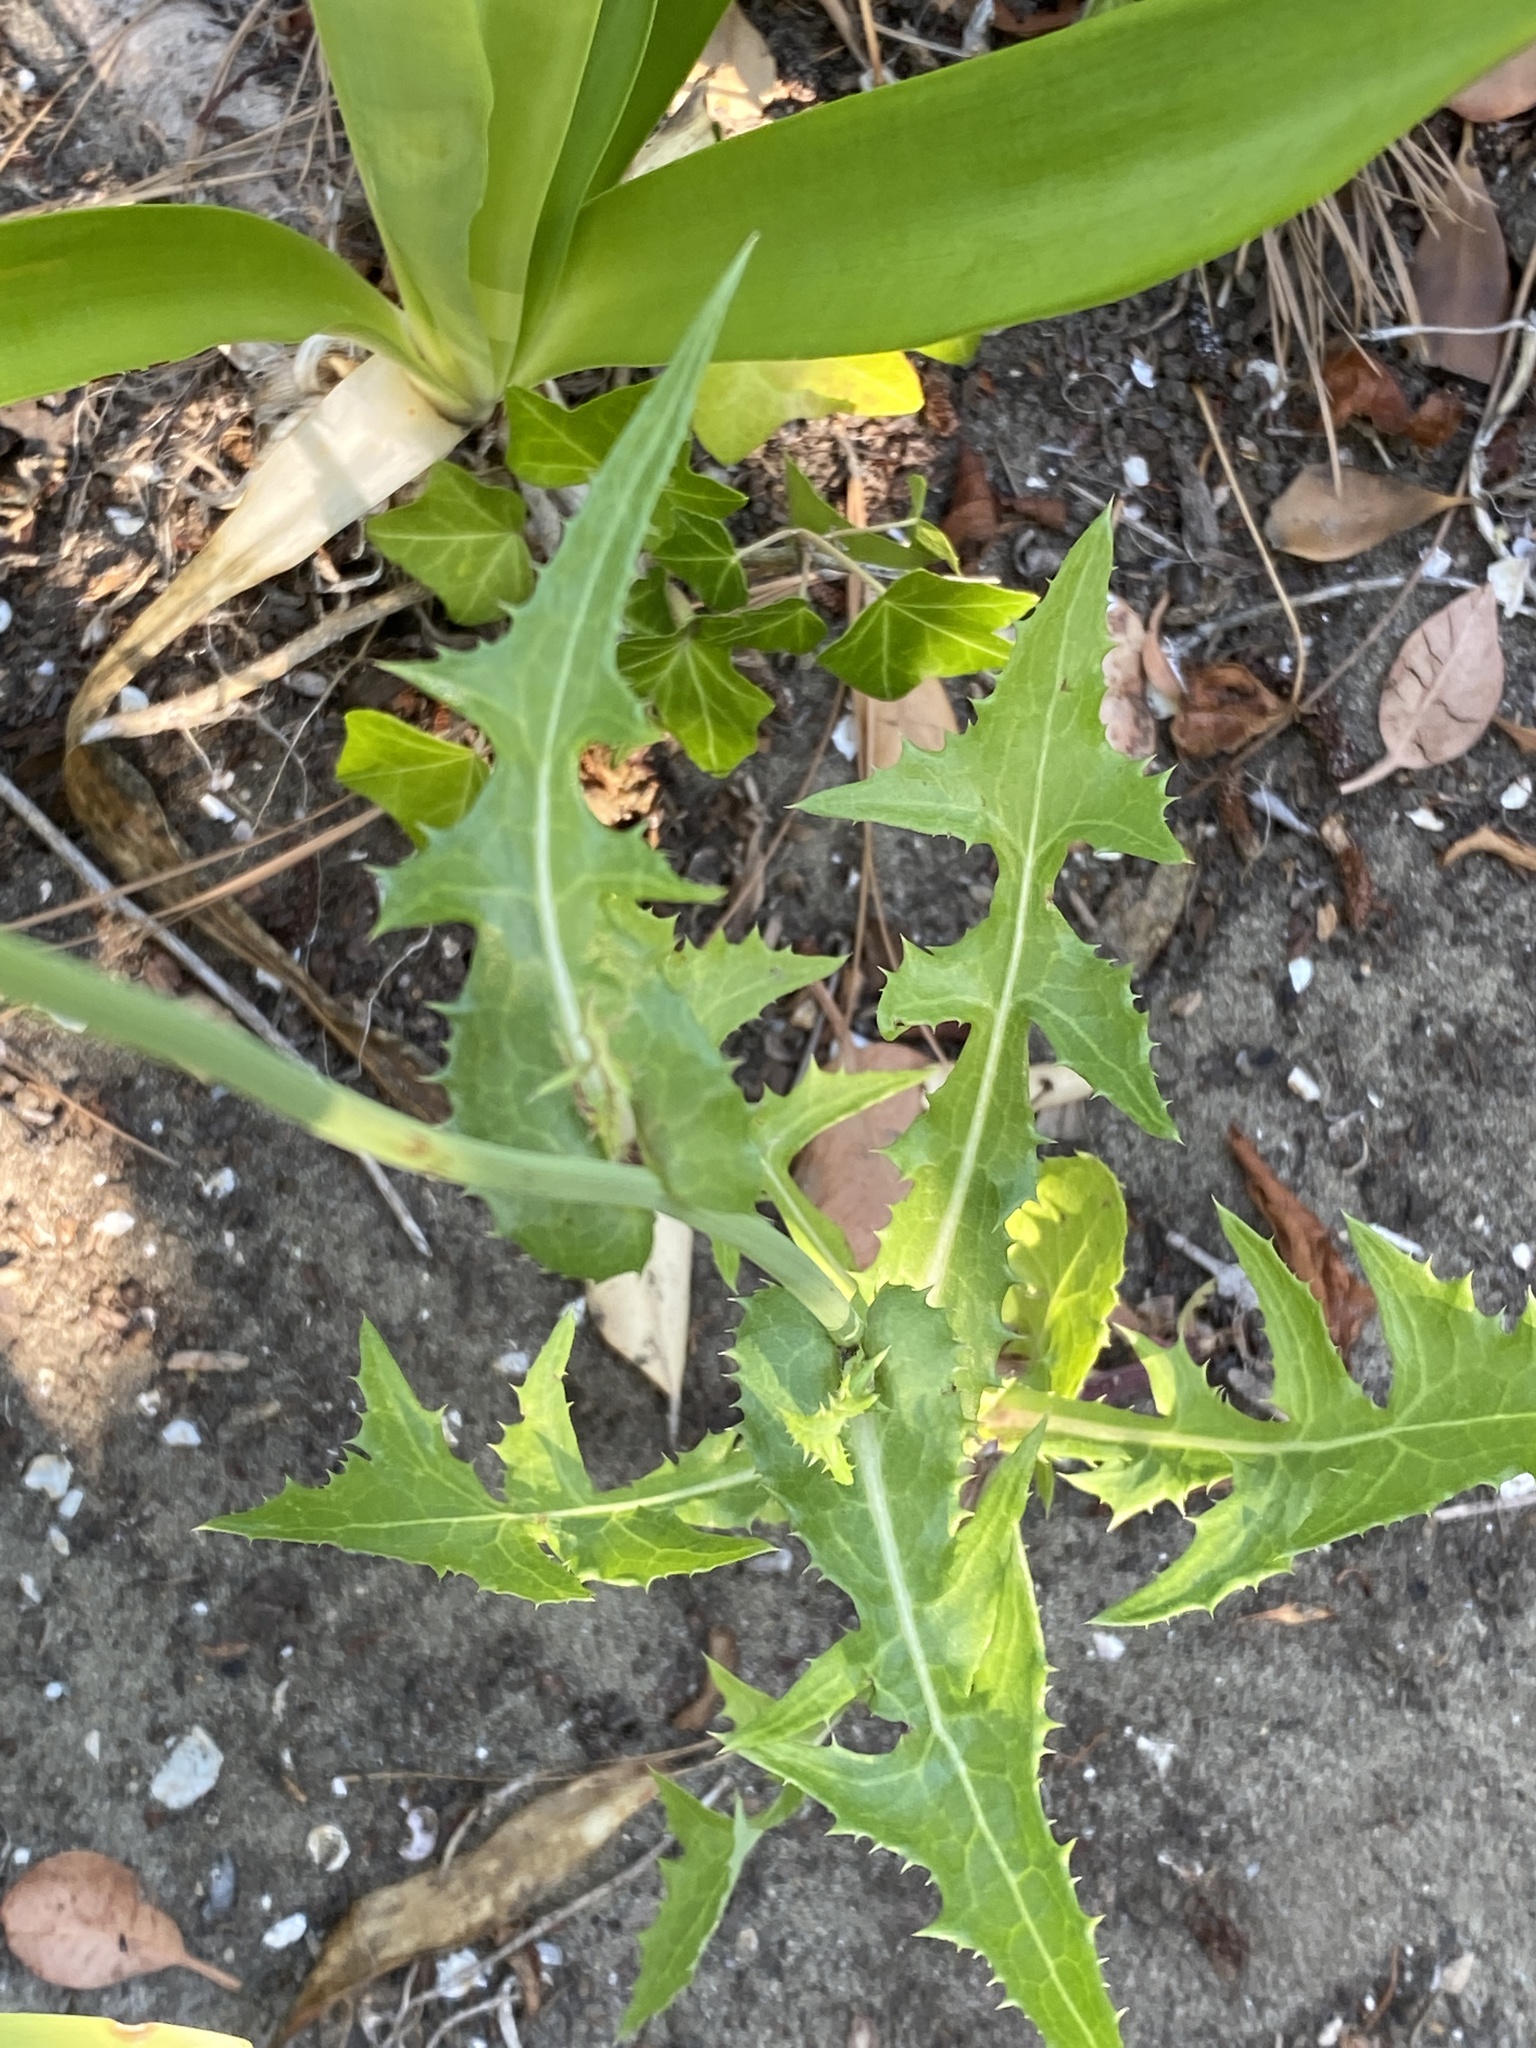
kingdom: Plantae
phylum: Tracheophyta
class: Magnoliopsida
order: Asterales
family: Asteraceae
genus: Sonchus
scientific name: Sonchus oleraceus
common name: Common sowthistle
